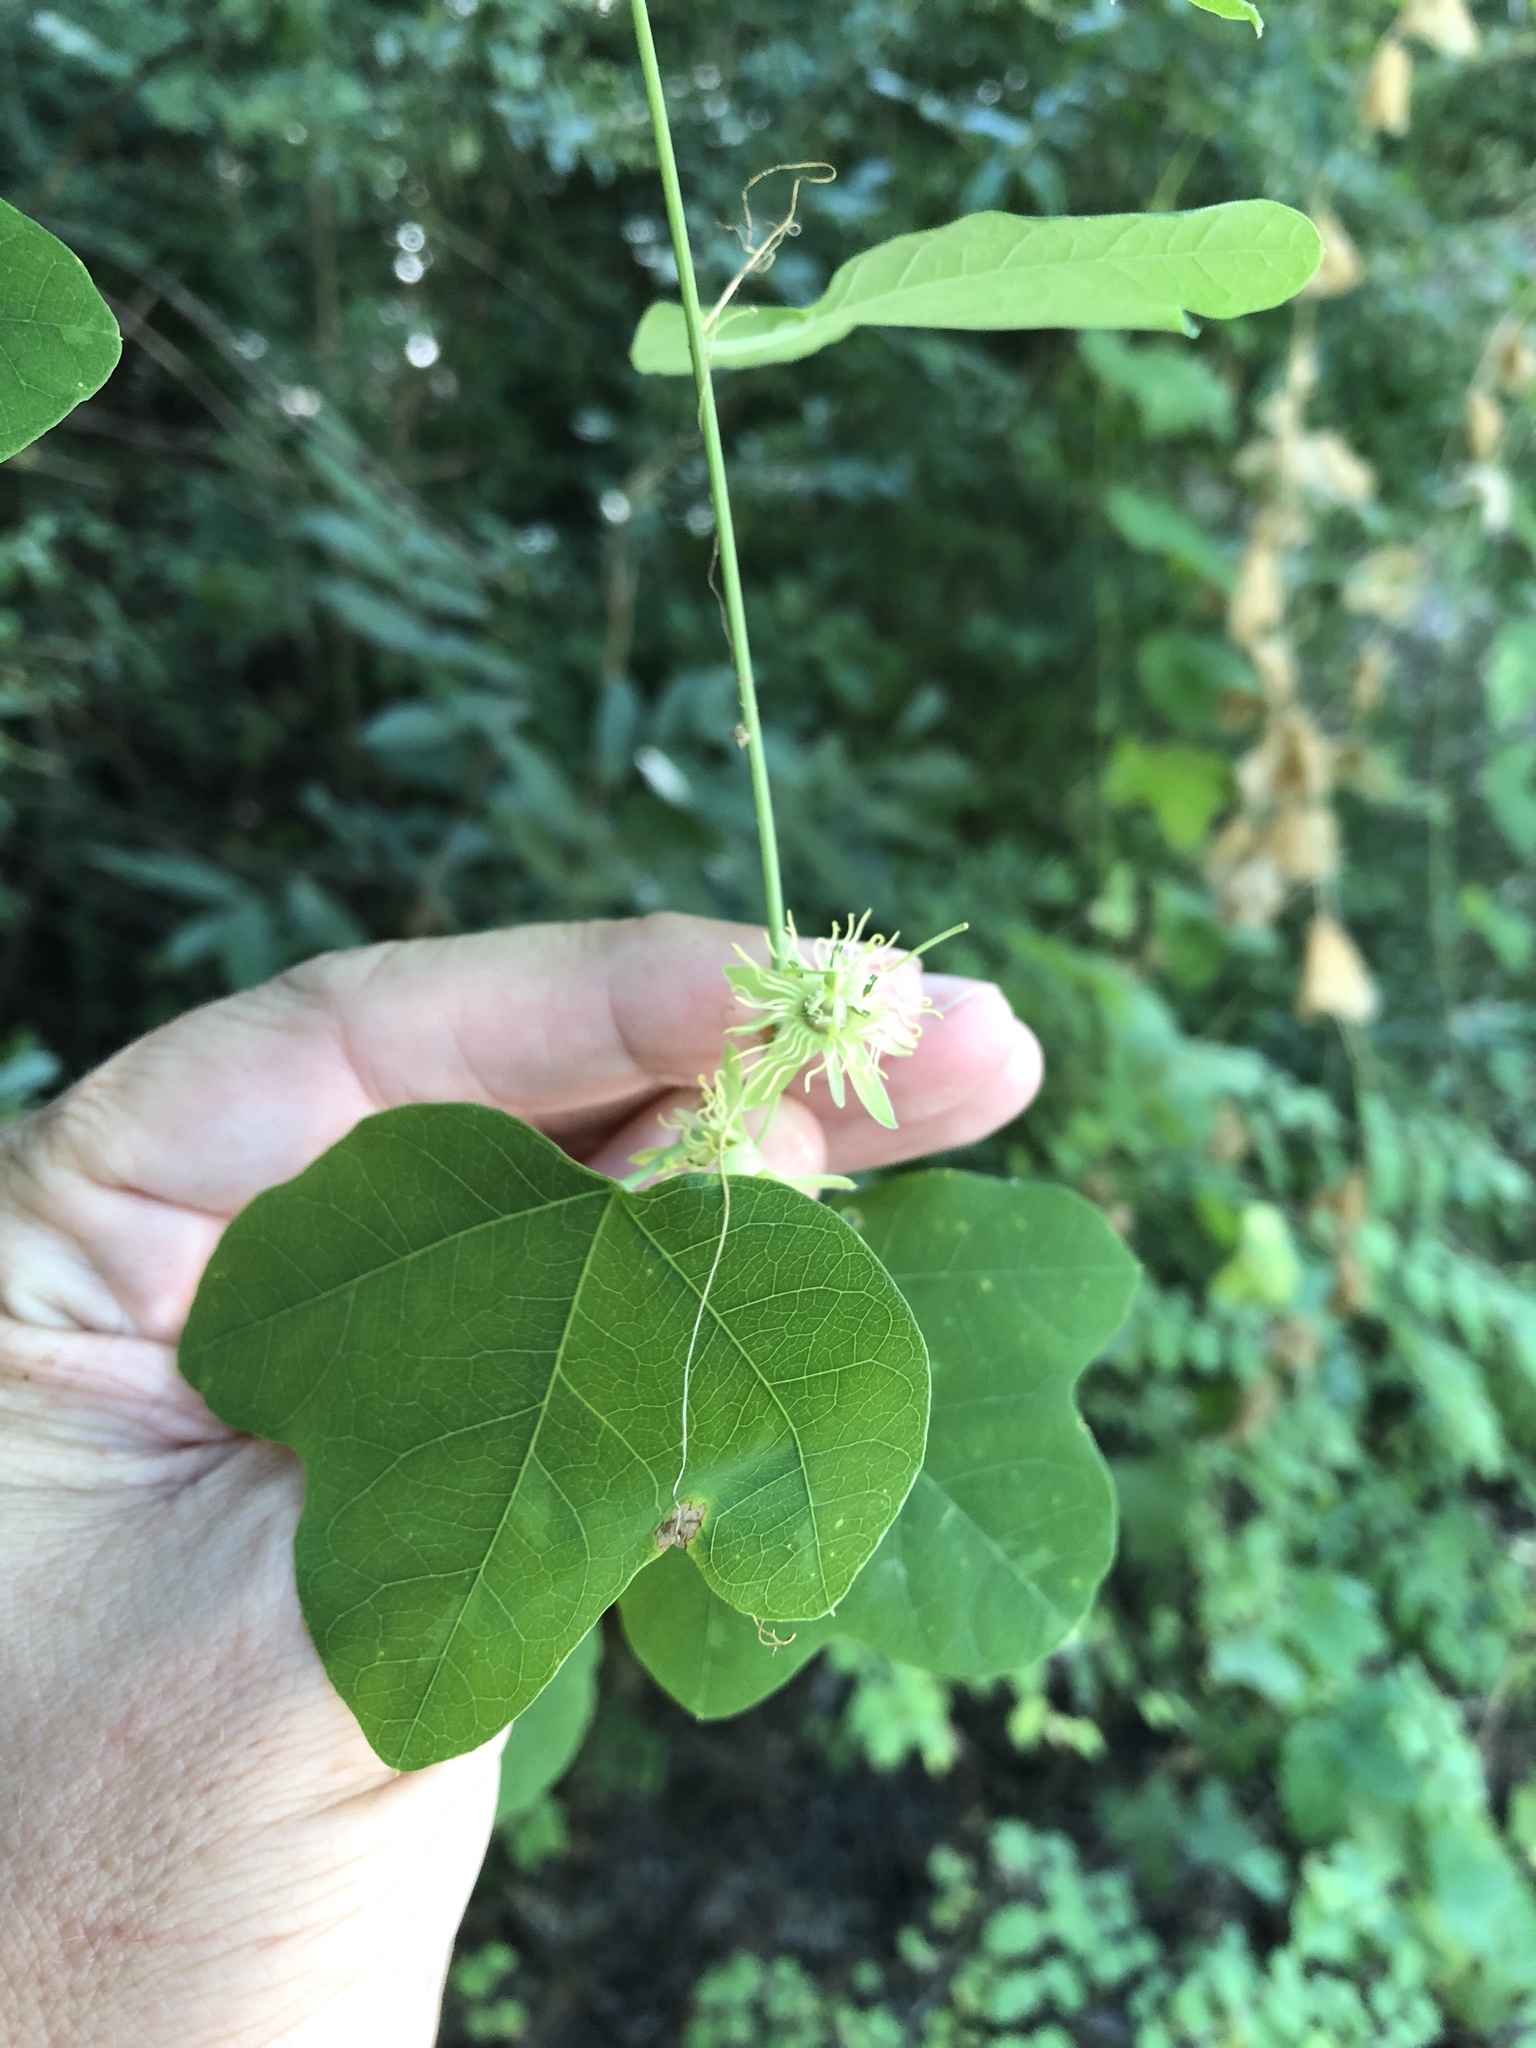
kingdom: Plantae
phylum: Tracheophyta
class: Magnoliopsida
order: Malpighiales
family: Passifloraceae
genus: Passiflora
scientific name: Passiflora lutea
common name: Yellow passionflower
